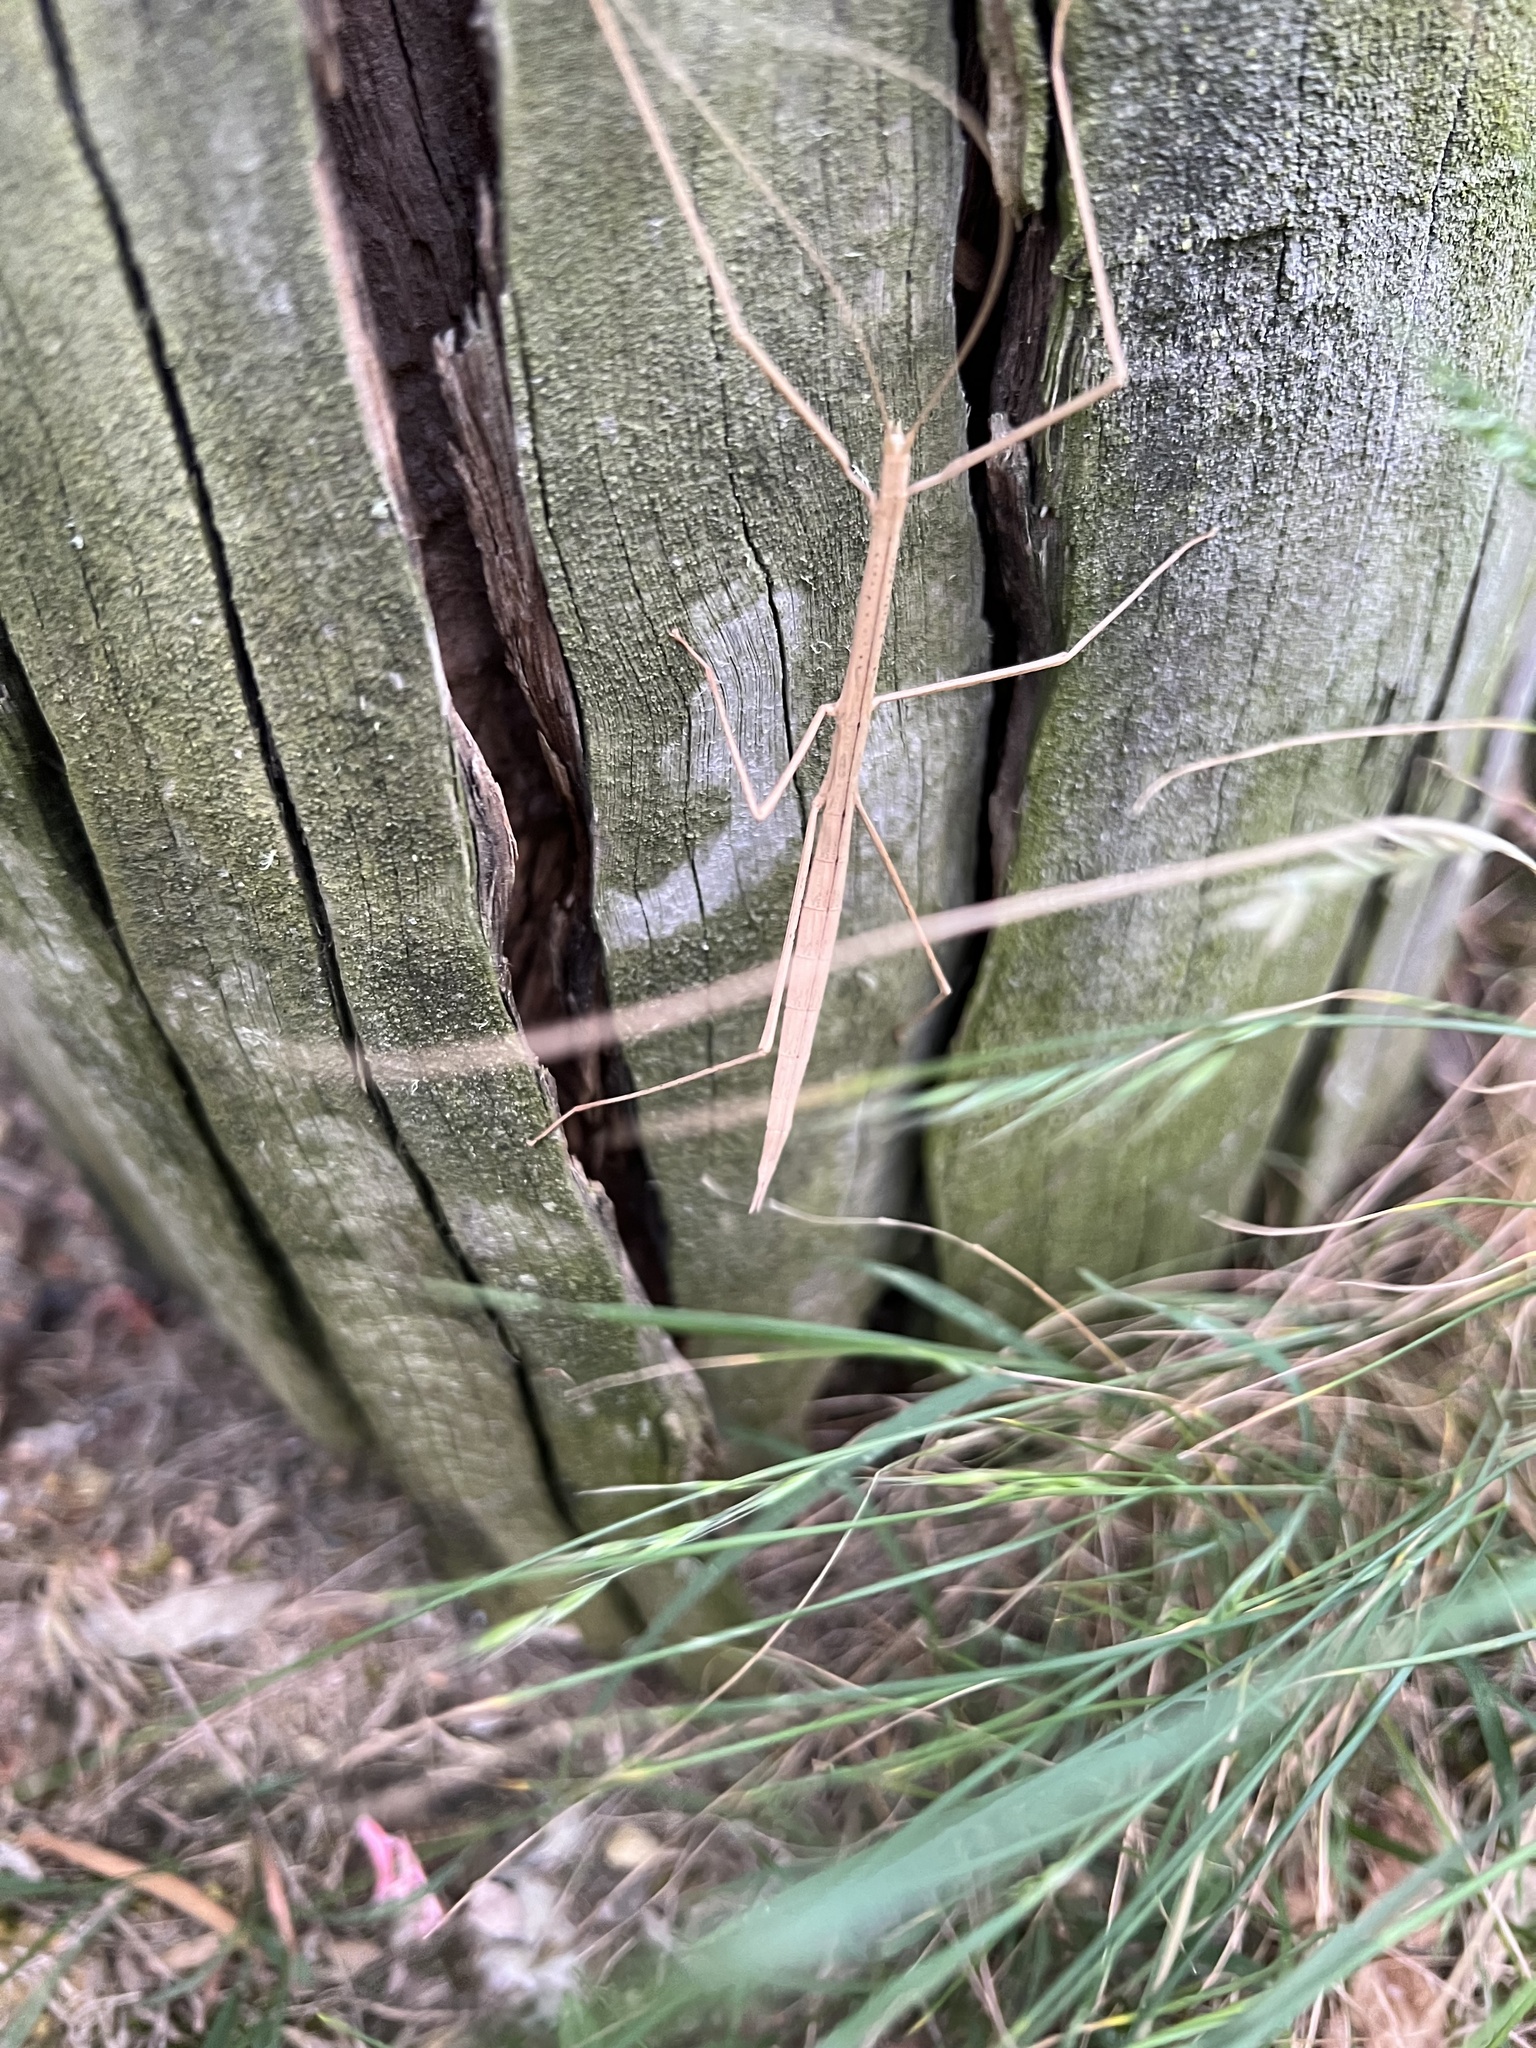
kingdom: Animalia
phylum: Arthropoda
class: Insecta
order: Phasmida
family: Lonchodidae
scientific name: Lonchodidae
